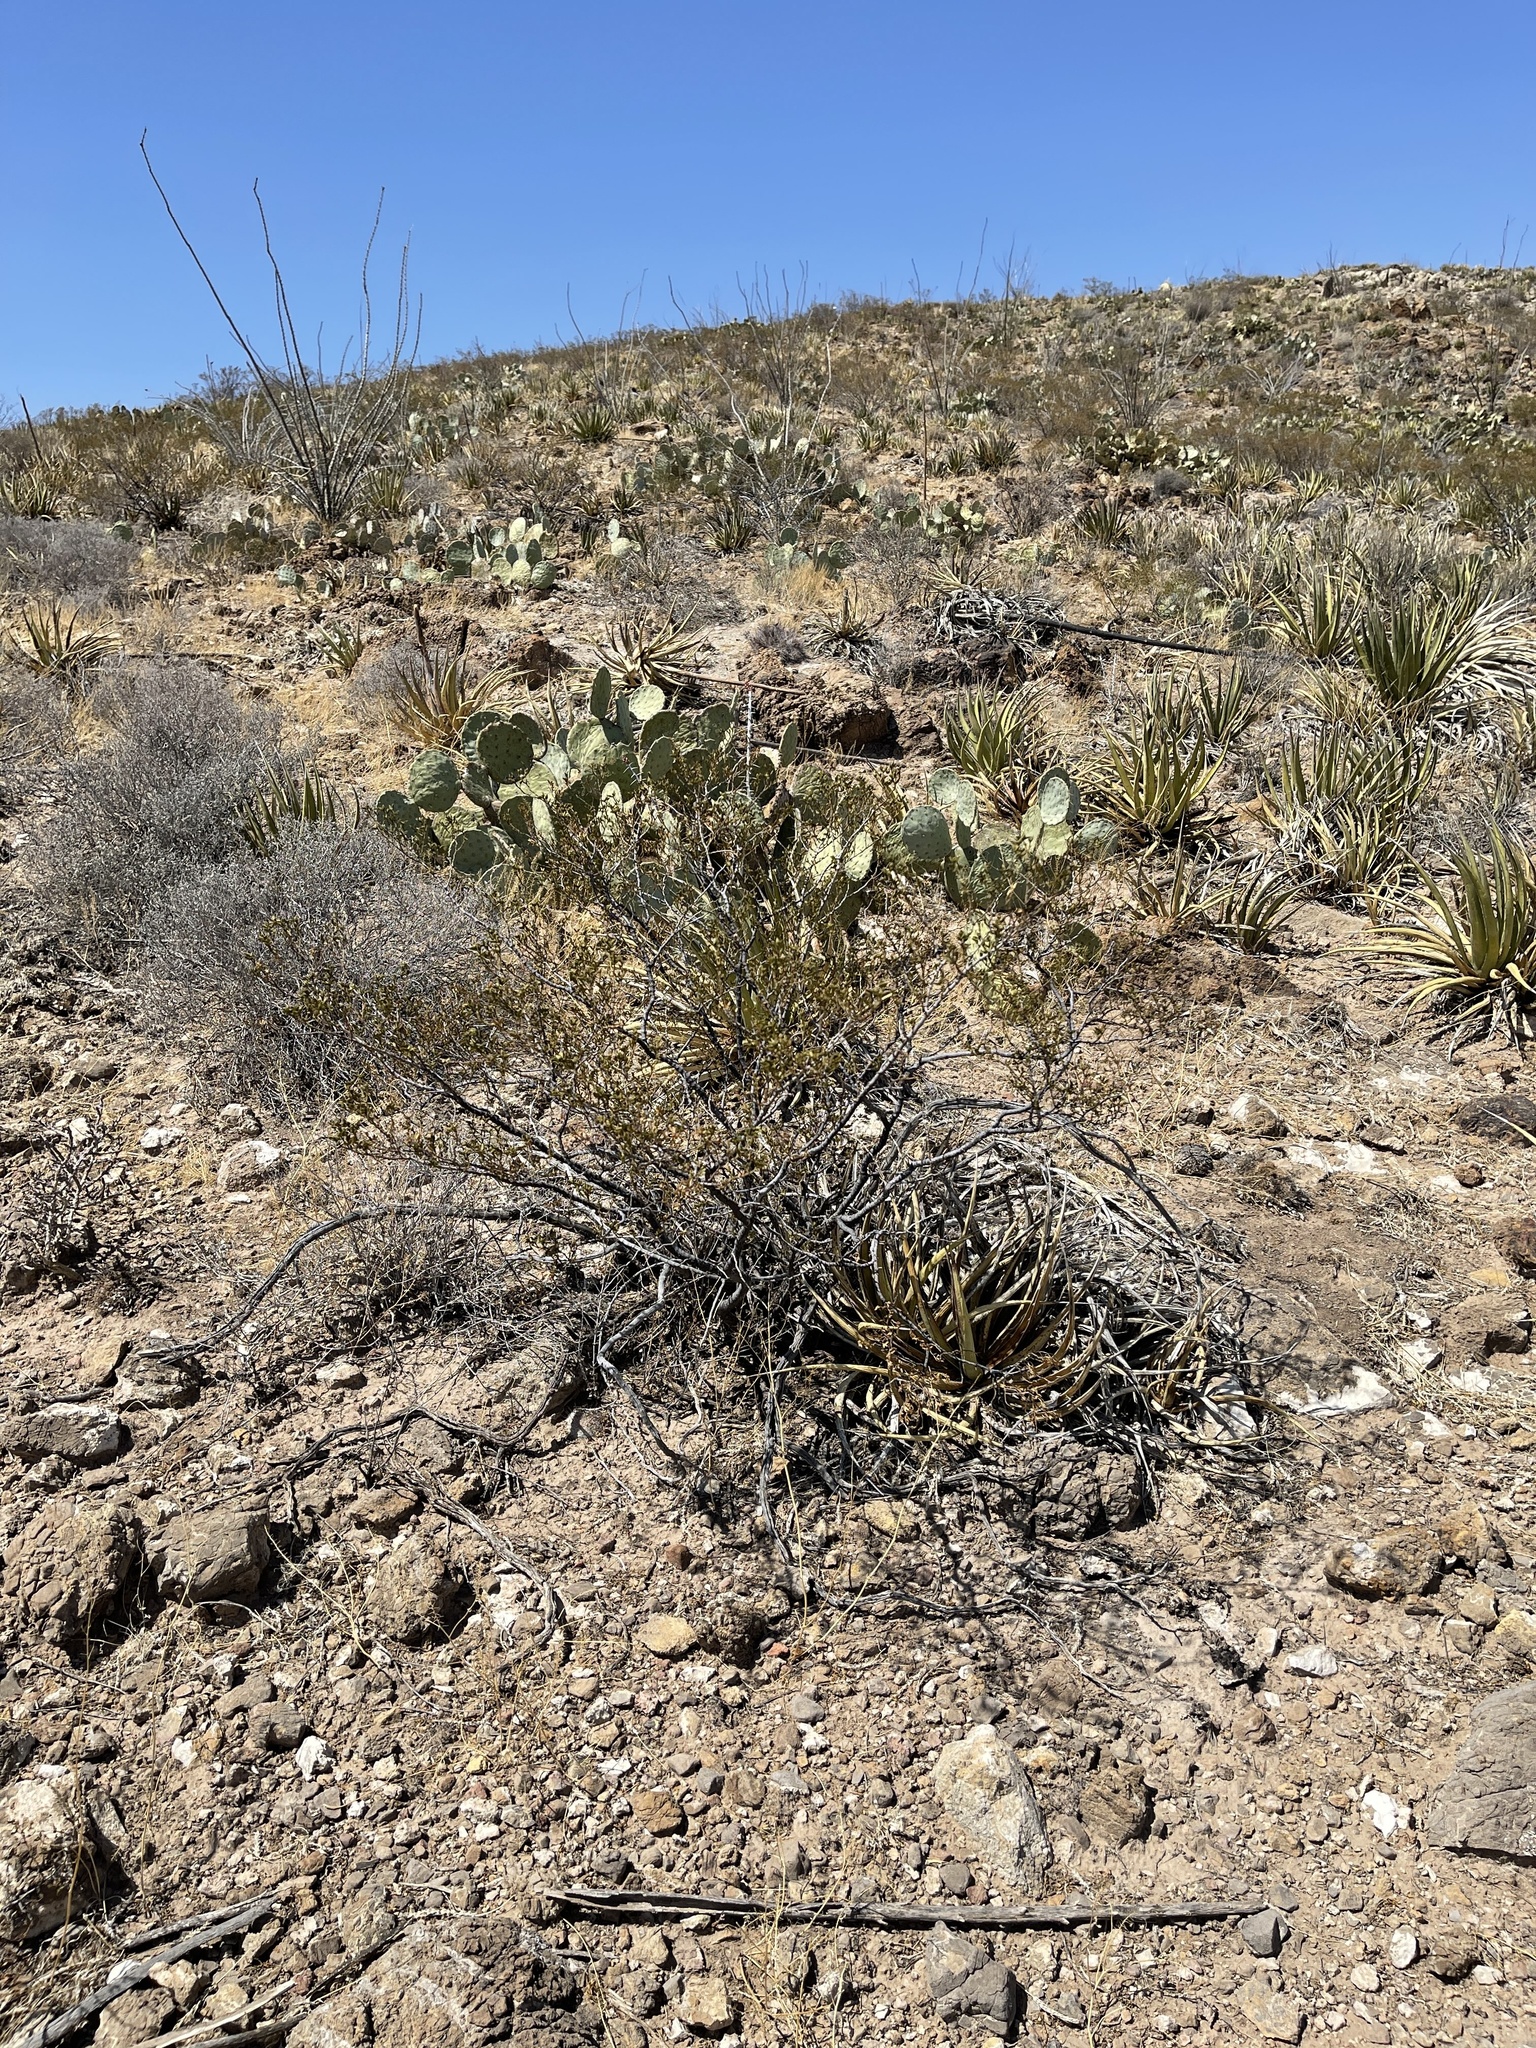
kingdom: Plantae
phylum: Tracheophyta
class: Magnoliopsida
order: Zygophyllales
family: Zygophyllaceae
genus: Larrea
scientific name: Larrea tridentata
